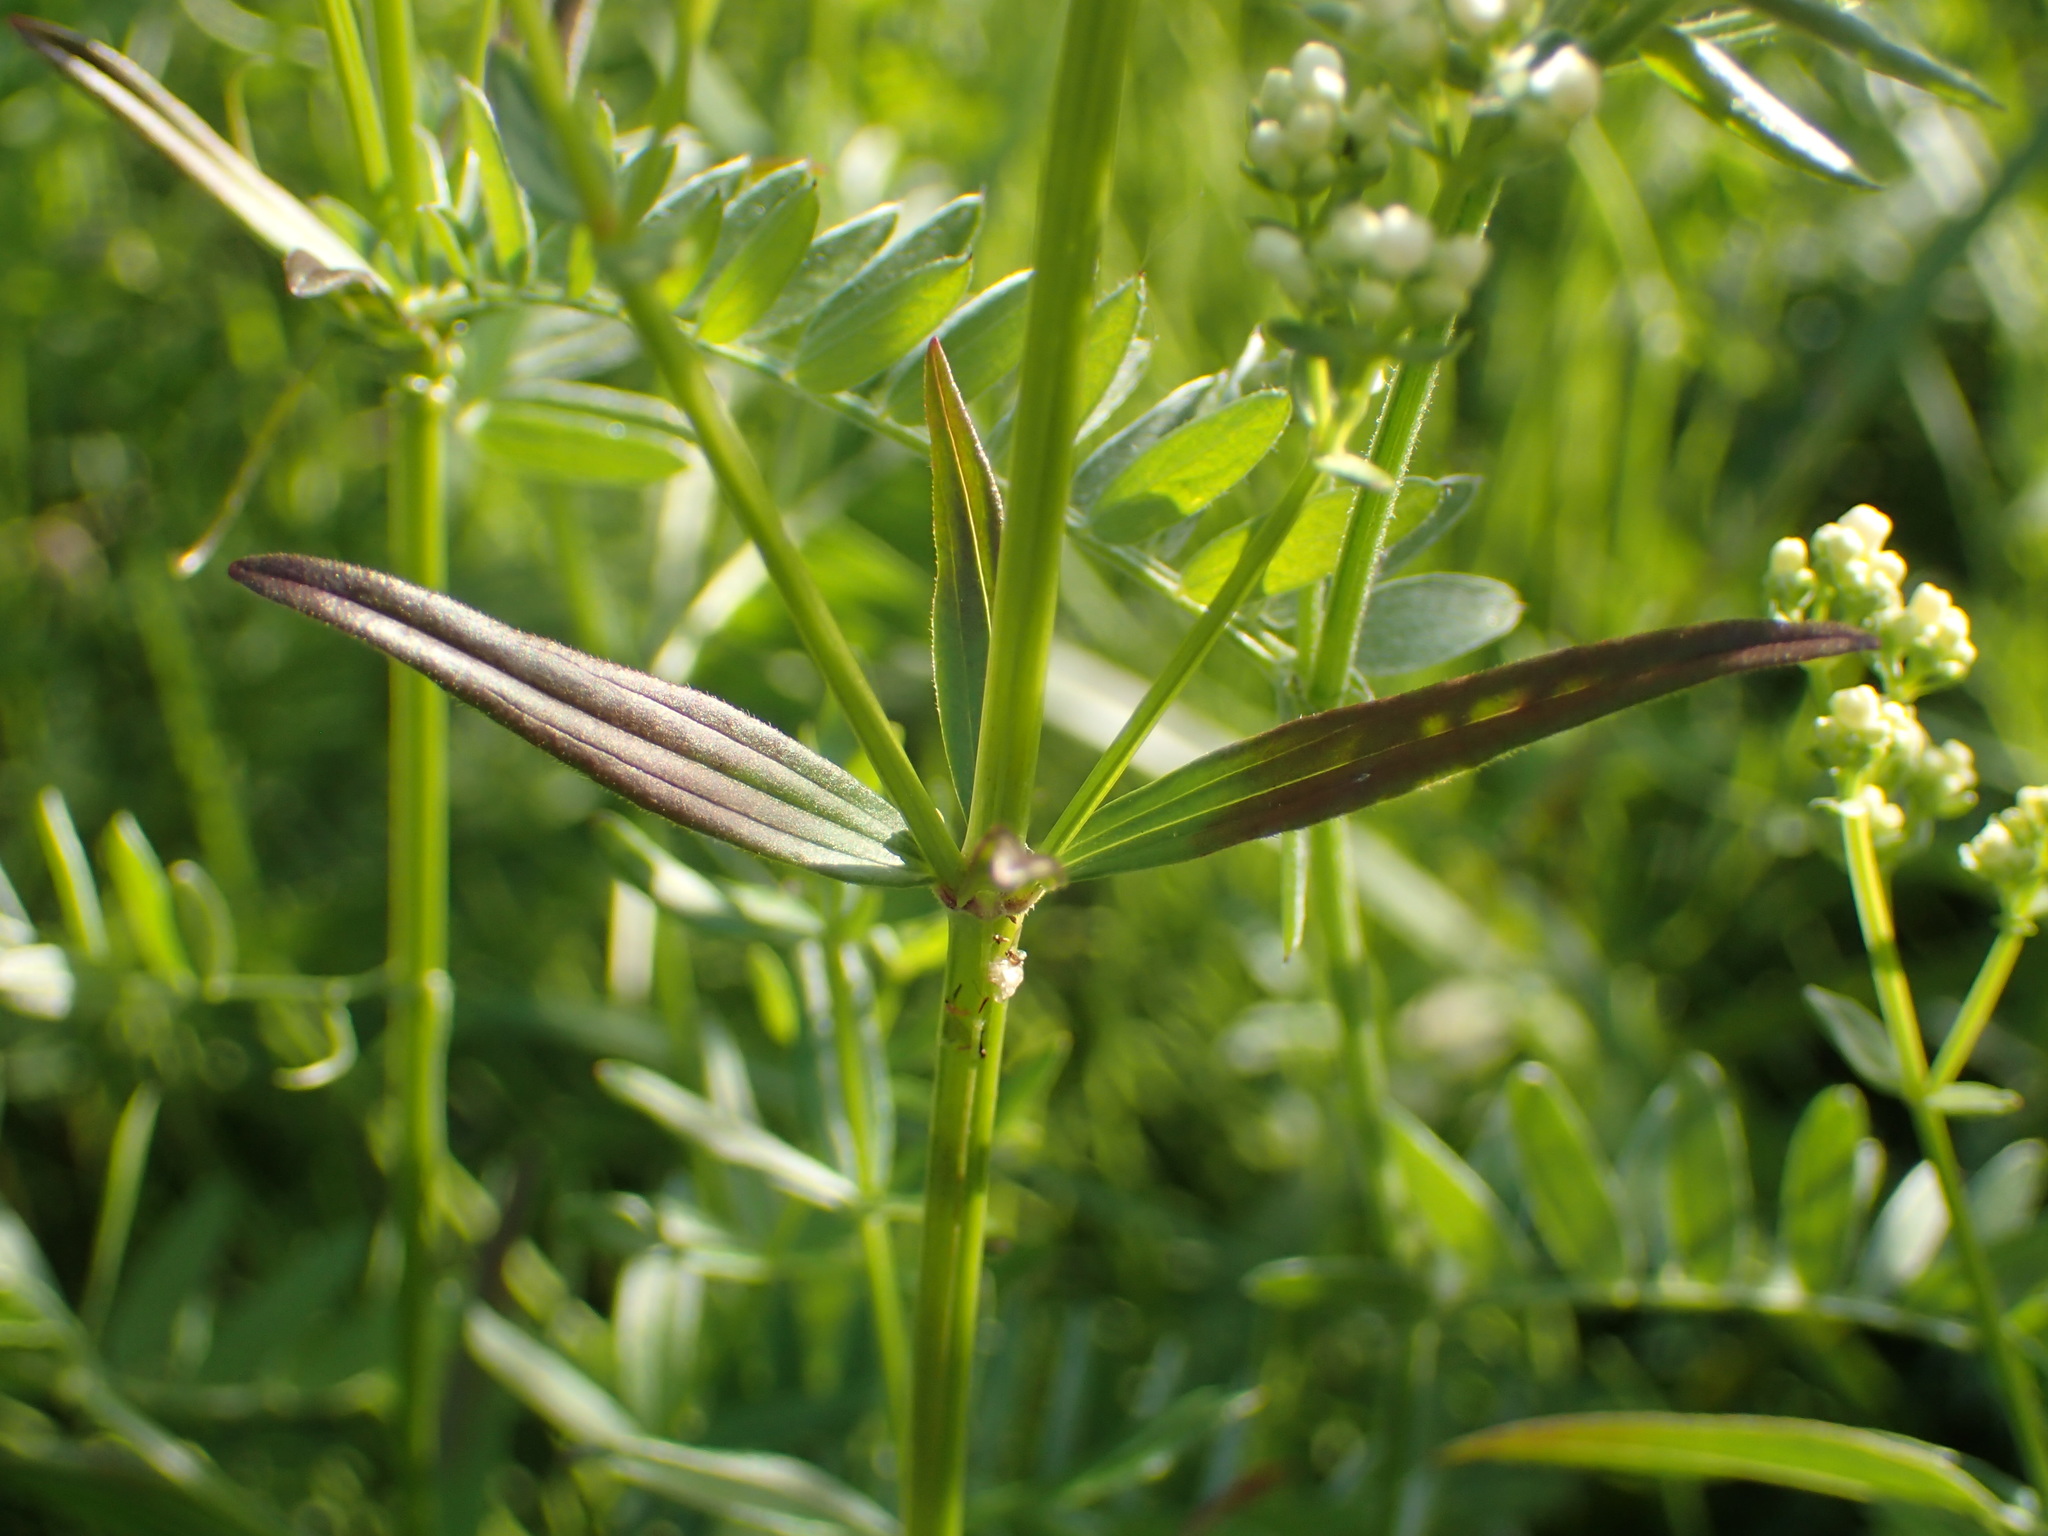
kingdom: Plantae
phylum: Tracheophyta
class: Magnoliopsida
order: Gentianales
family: Rubiaceae
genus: Galium
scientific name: Galium boreale
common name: Northern bedstraw
